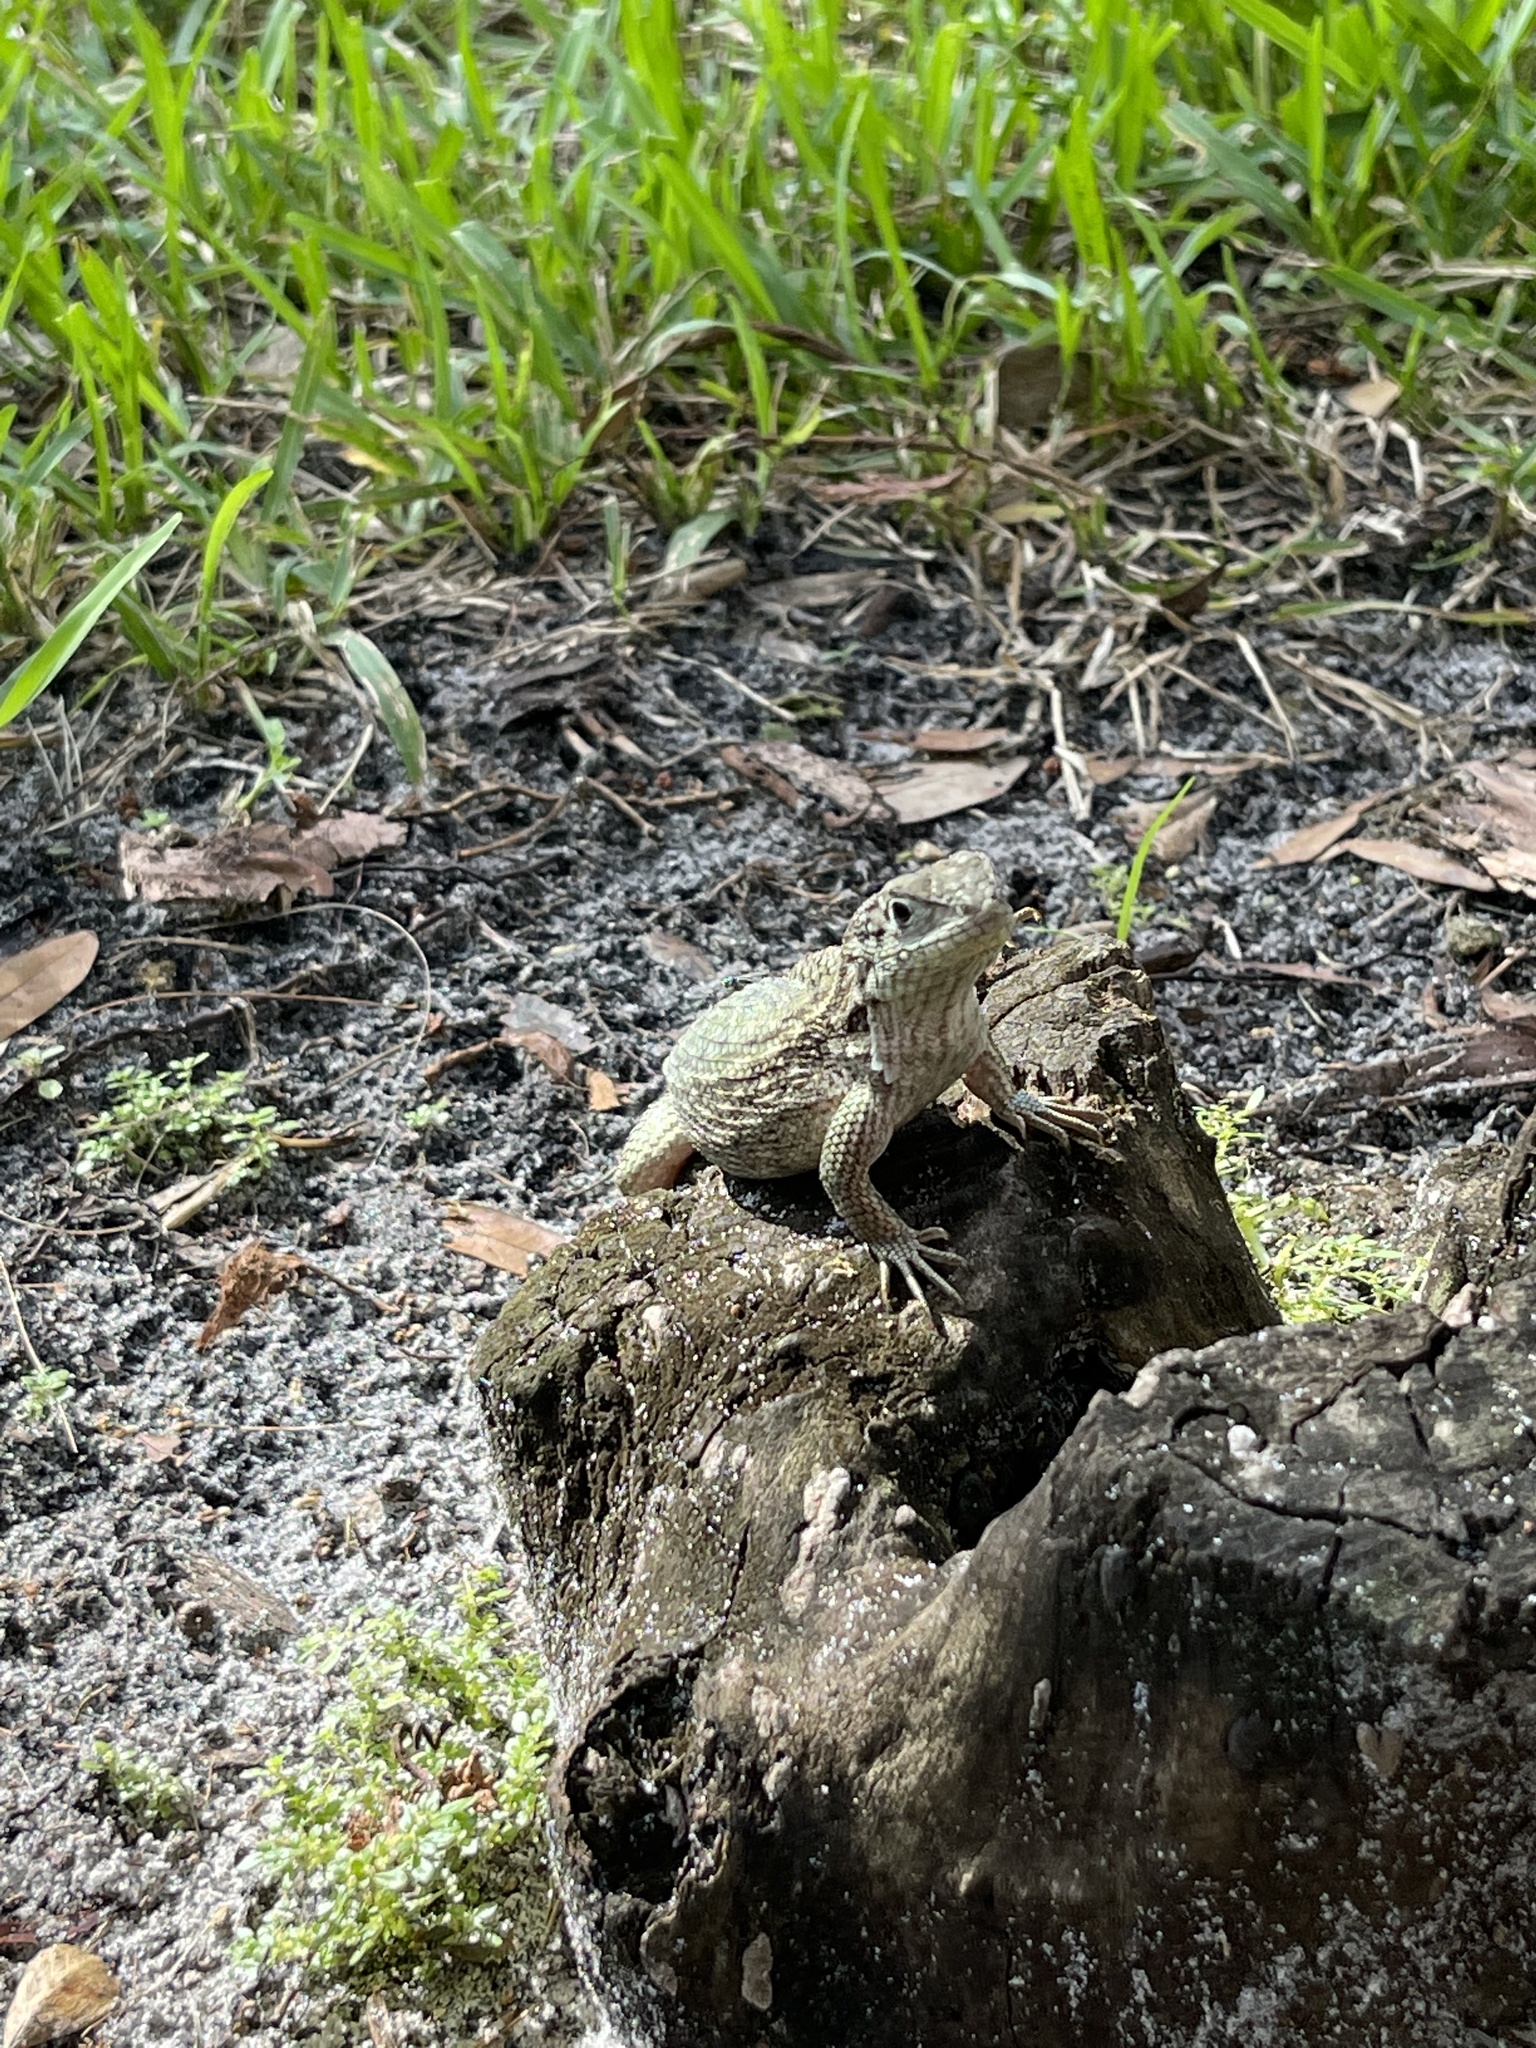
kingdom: Animalia
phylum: Chordata
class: Squamata
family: Leiocephalidae
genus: Leiocephalus
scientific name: Leiocephalus carinatus
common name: Northern curly-tailed lizard
